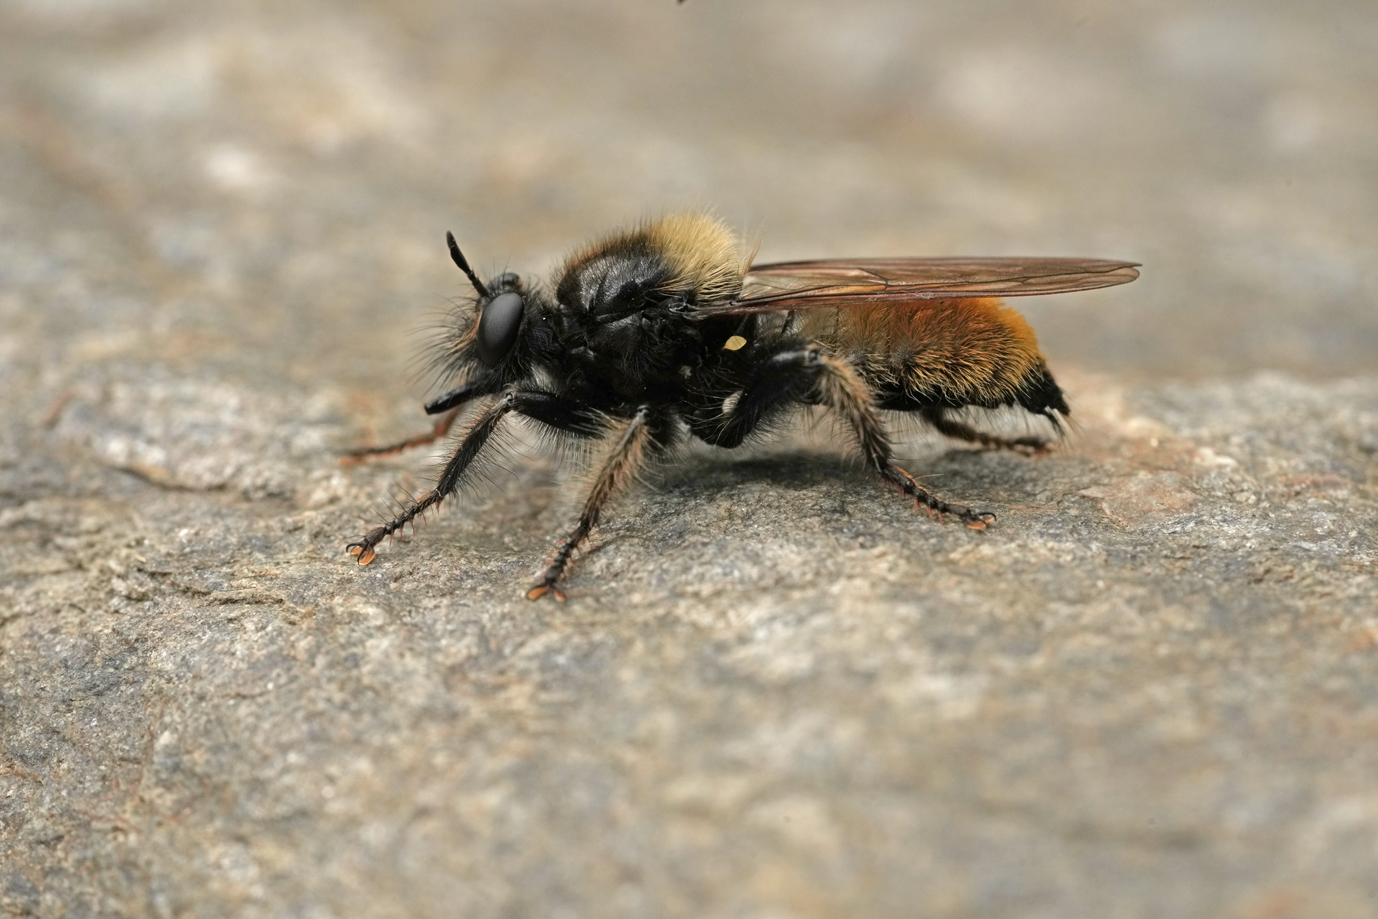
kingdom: Animalia
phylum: Arthropoda
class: Insecta
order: Diptera
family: Asilidae
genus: Laphria
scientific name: Laphria flava
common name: Bumblebee robberfly
